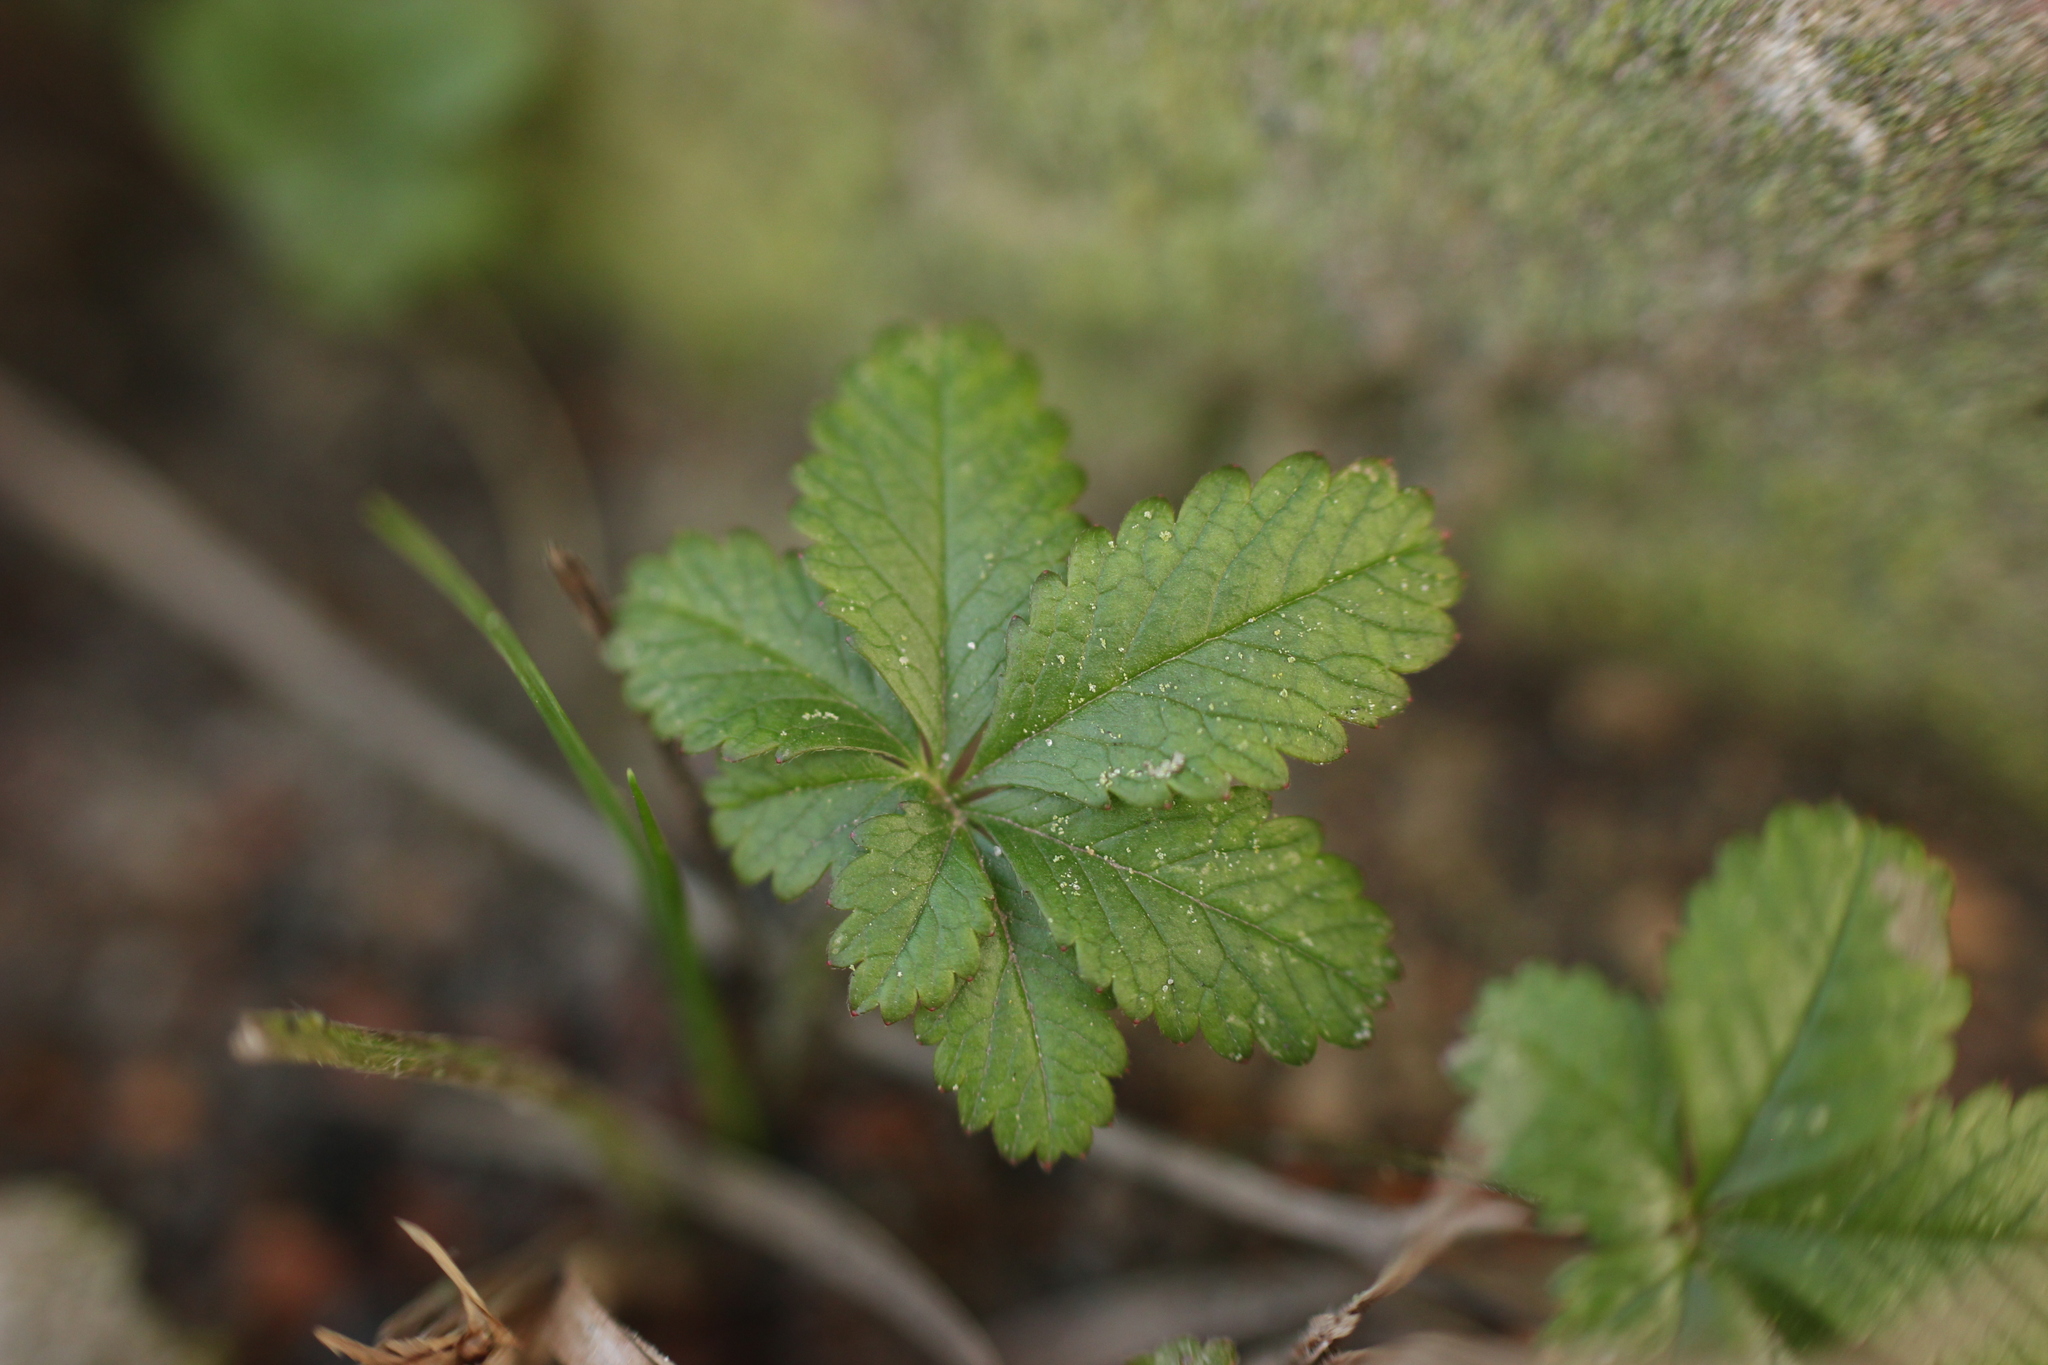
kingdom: Plantae
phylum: Tracheophyta
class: Magnoliopsida
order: Rosales
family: Rosaceae
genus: Potentilla
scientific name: Potentilla reptans
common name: Creeping cinquefoil
